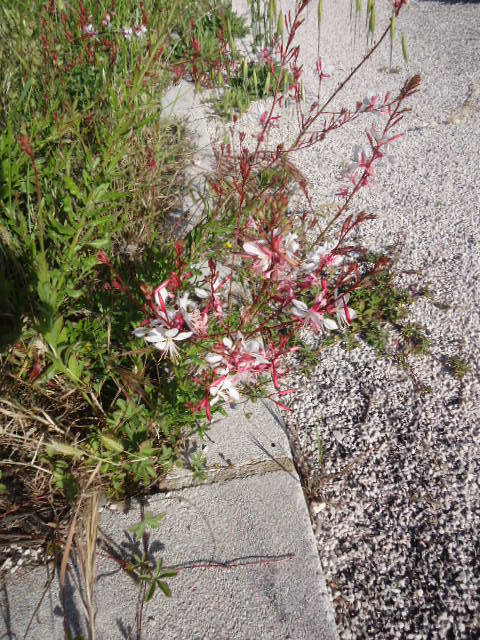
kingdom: Plantae
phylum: Tracheophyta
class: Magnoliopsida
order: Myrtales
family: Onagraceae
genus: Oenothera
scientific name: Oenothera lindheimeri
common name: Lindheimer's beeblossom
